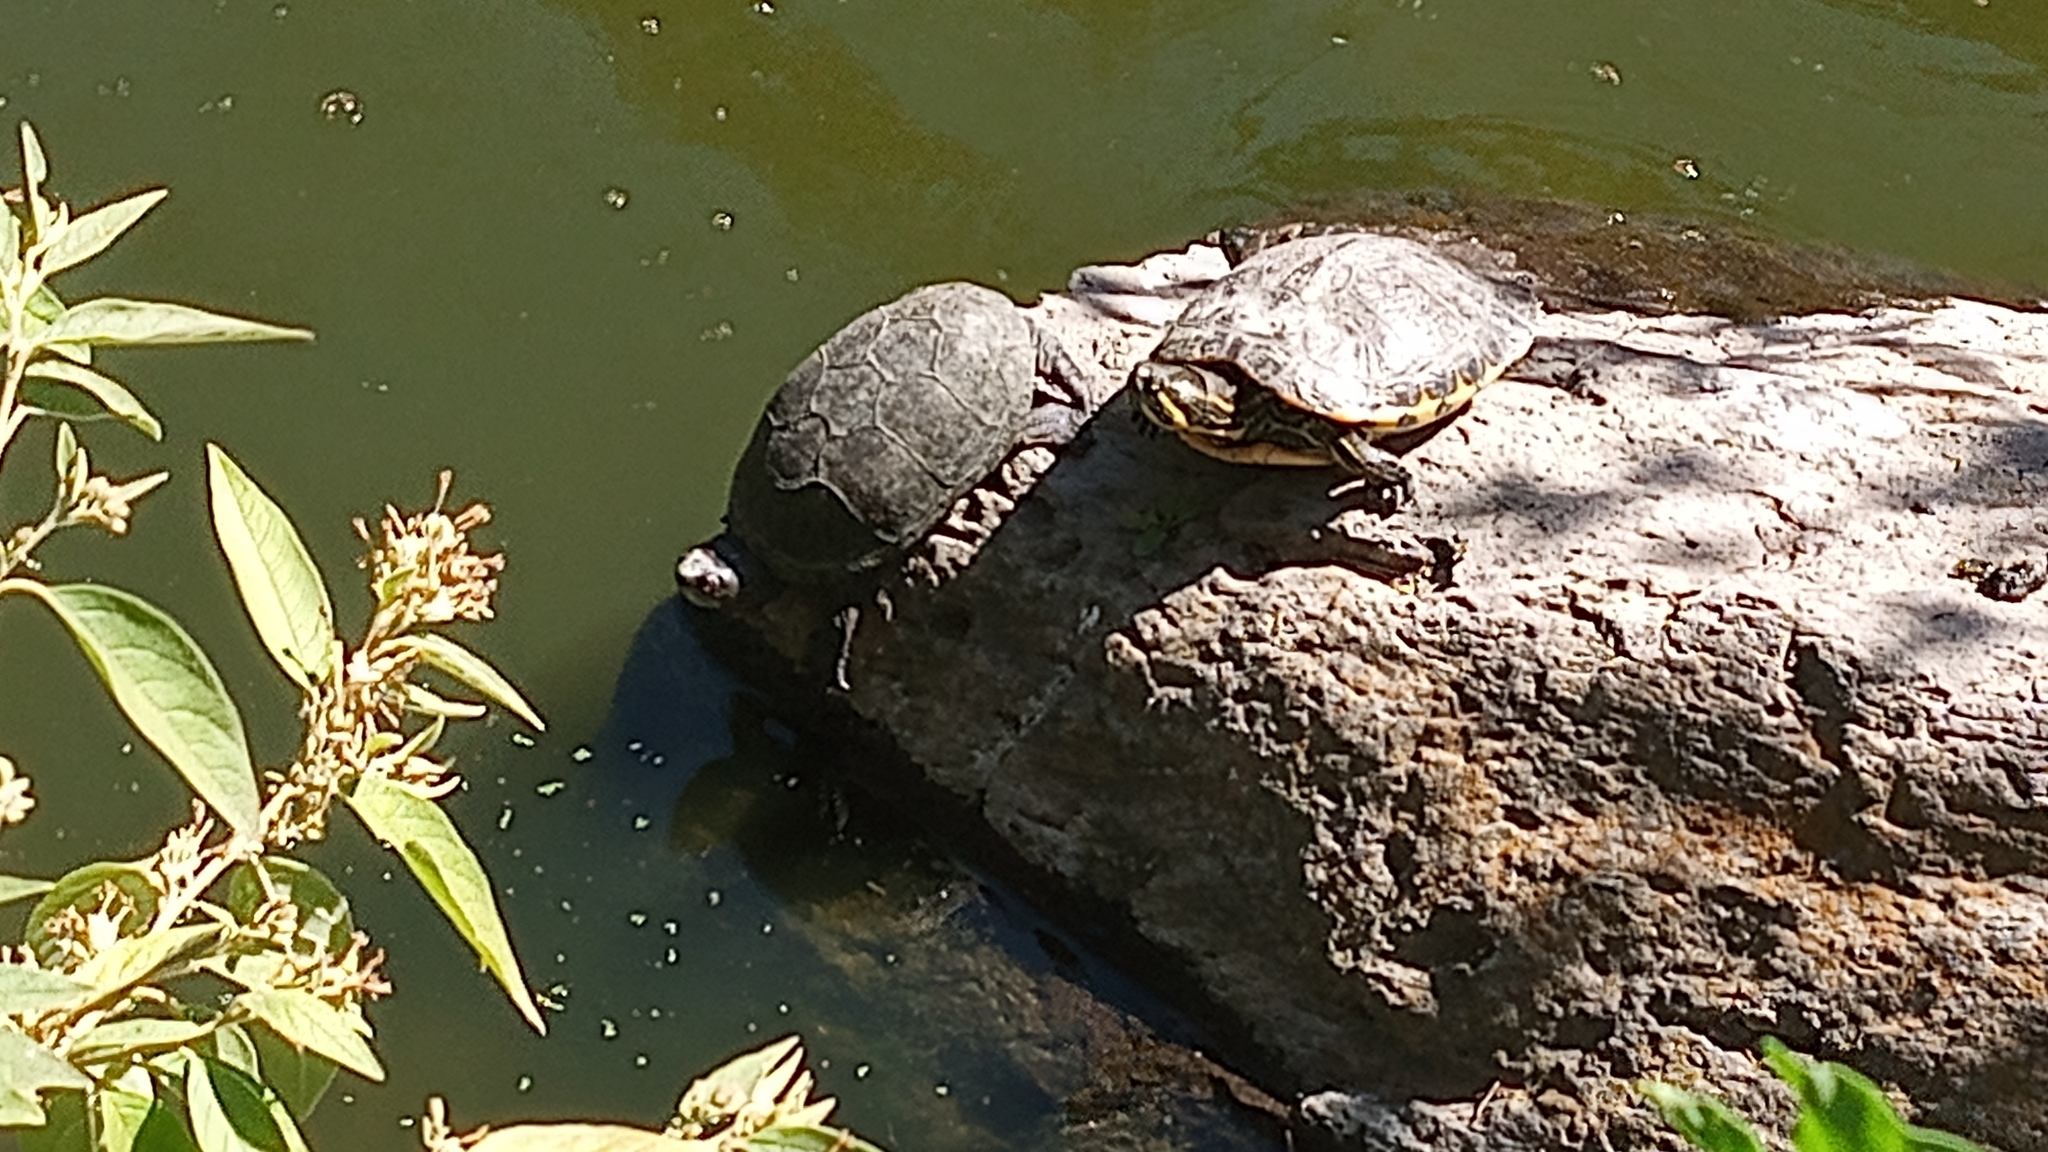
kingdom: Animalia
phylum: Chordata
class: Testudines
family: Kinosternidae
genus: Kinosternon
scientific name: Kinosternon integrum
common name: Mexican mud turtle
